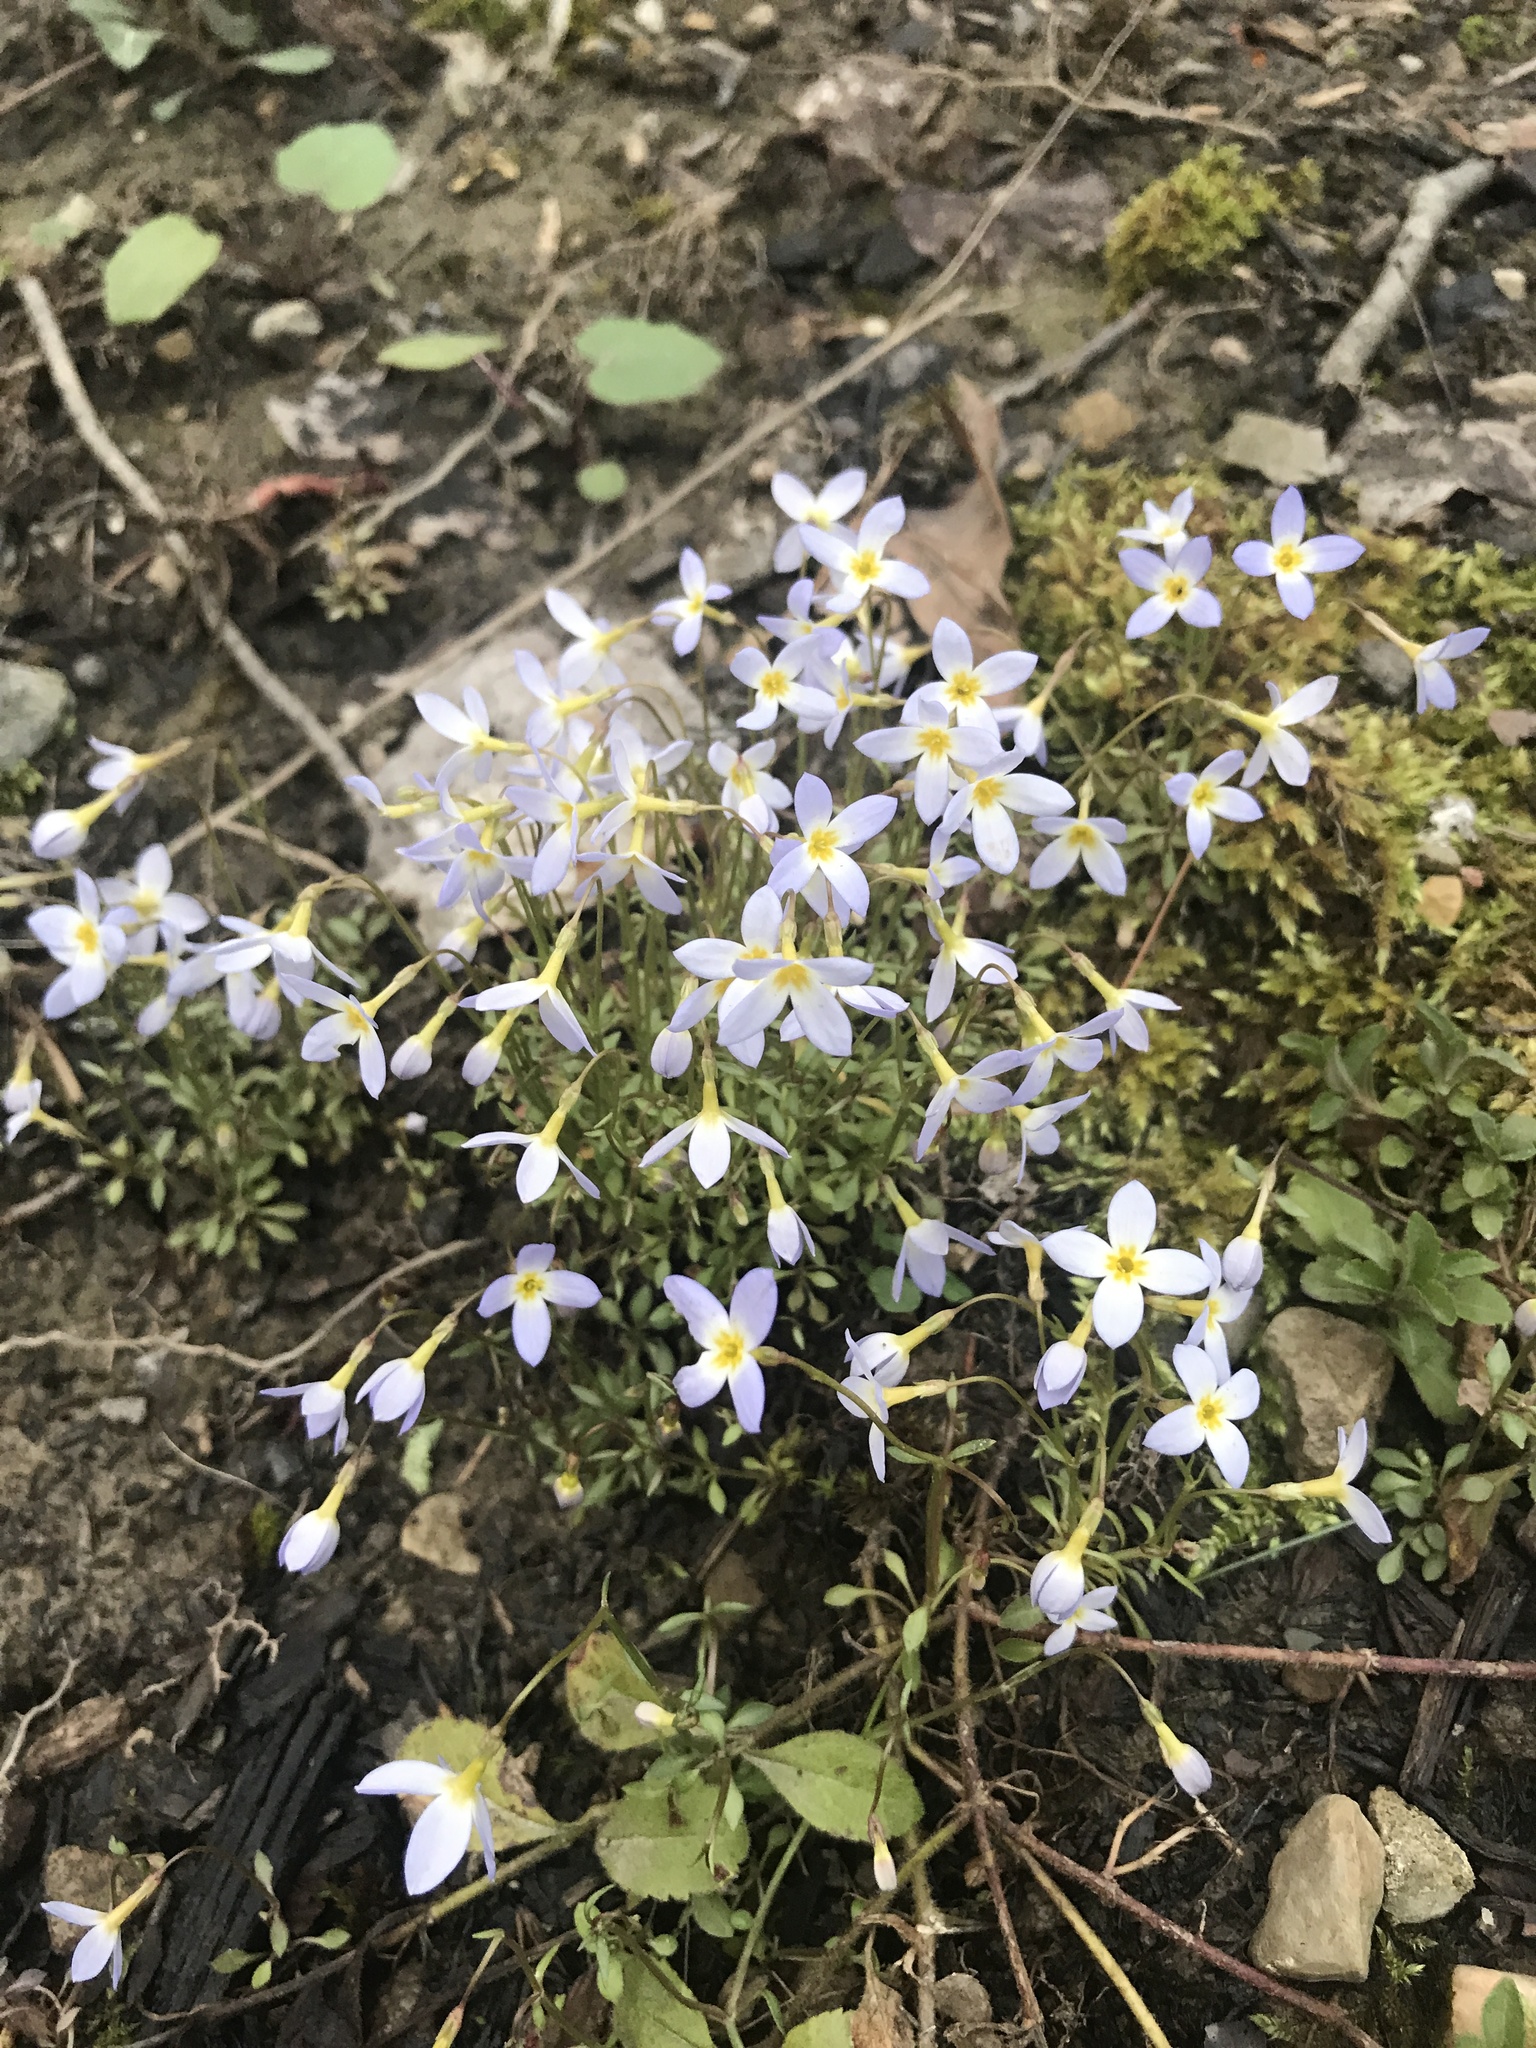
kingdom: Plantae
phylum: Tracheophyta
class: Magnoliopsida
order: Gentianales
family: Rubiaceae
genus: Houstonia
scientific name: Houstonia caerulea
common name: Bluets
